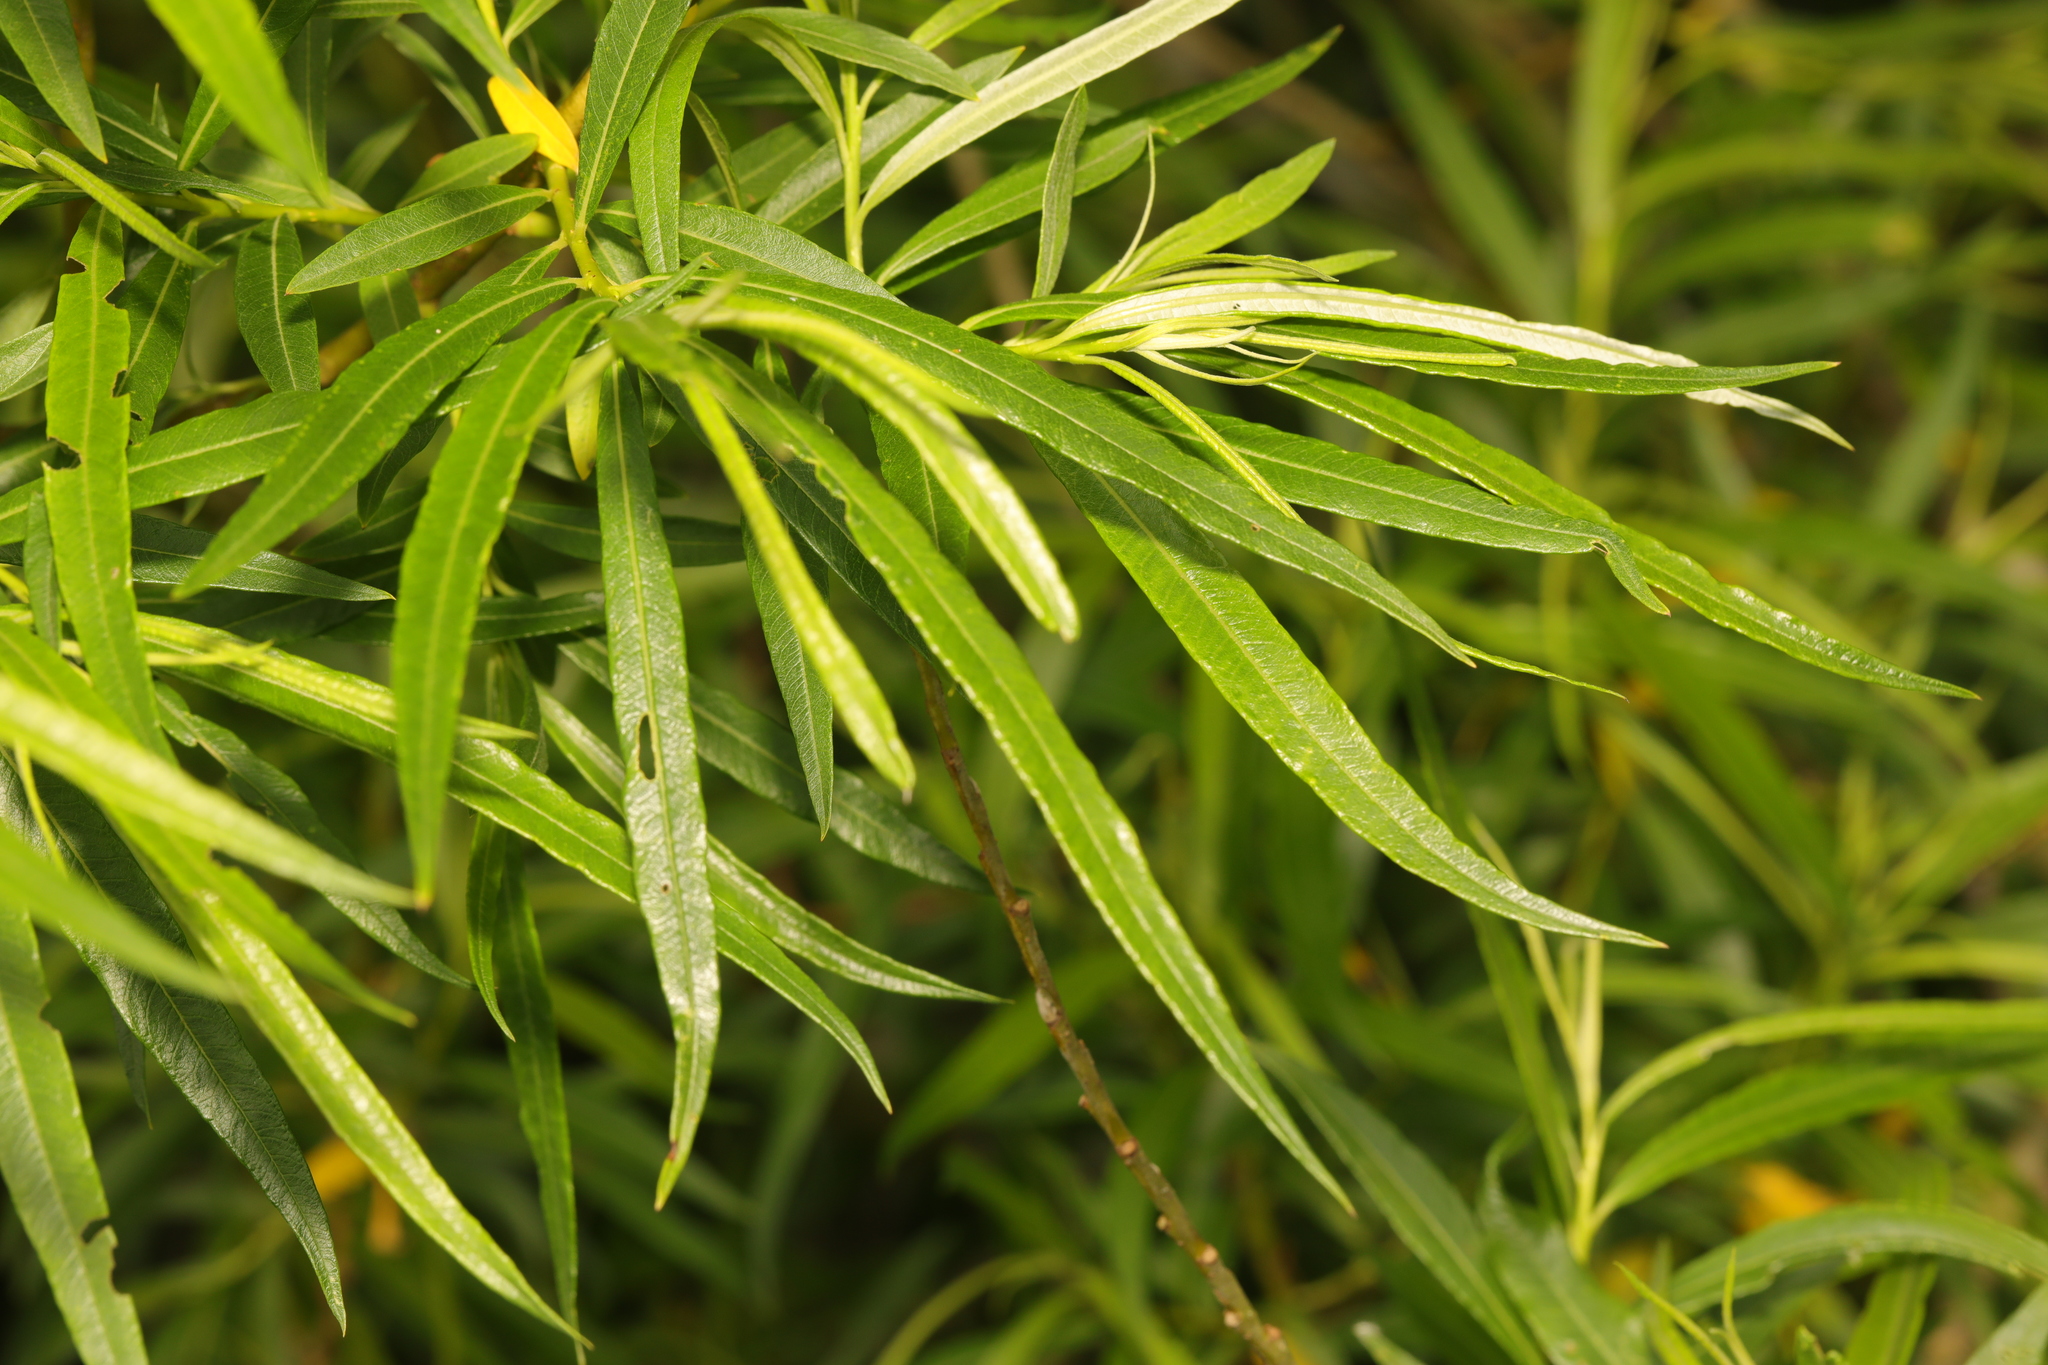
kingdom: Plantae
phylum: Tracheophyta
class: Magnoliopsida
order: Malpighiales
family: Salicaceae
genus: Salix
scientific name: Salix viminalis
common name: Osier
